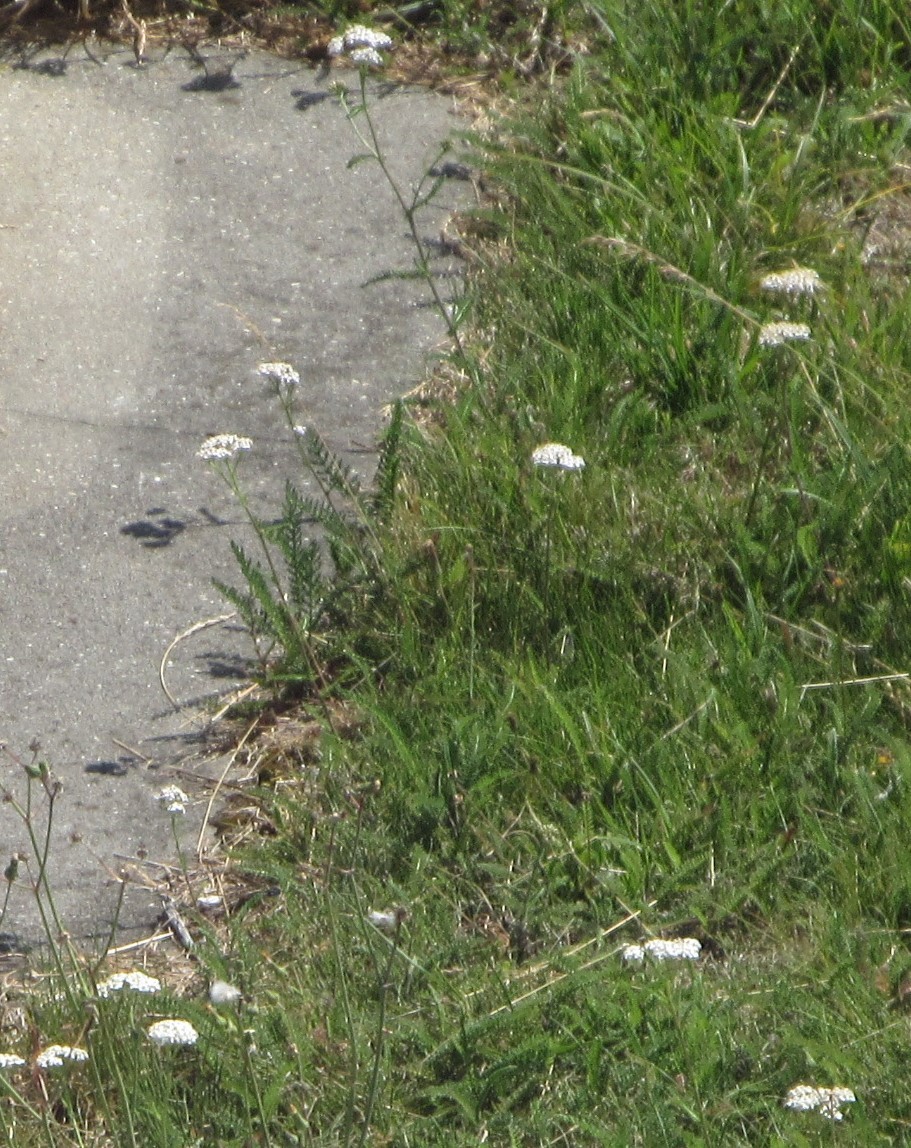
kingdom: Plantae
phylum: Tracheophyta
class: Magnoliopsida
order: Asterales
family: Asteraceae
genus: Achillea
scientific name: Achillea millefolium
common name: Yarrow
